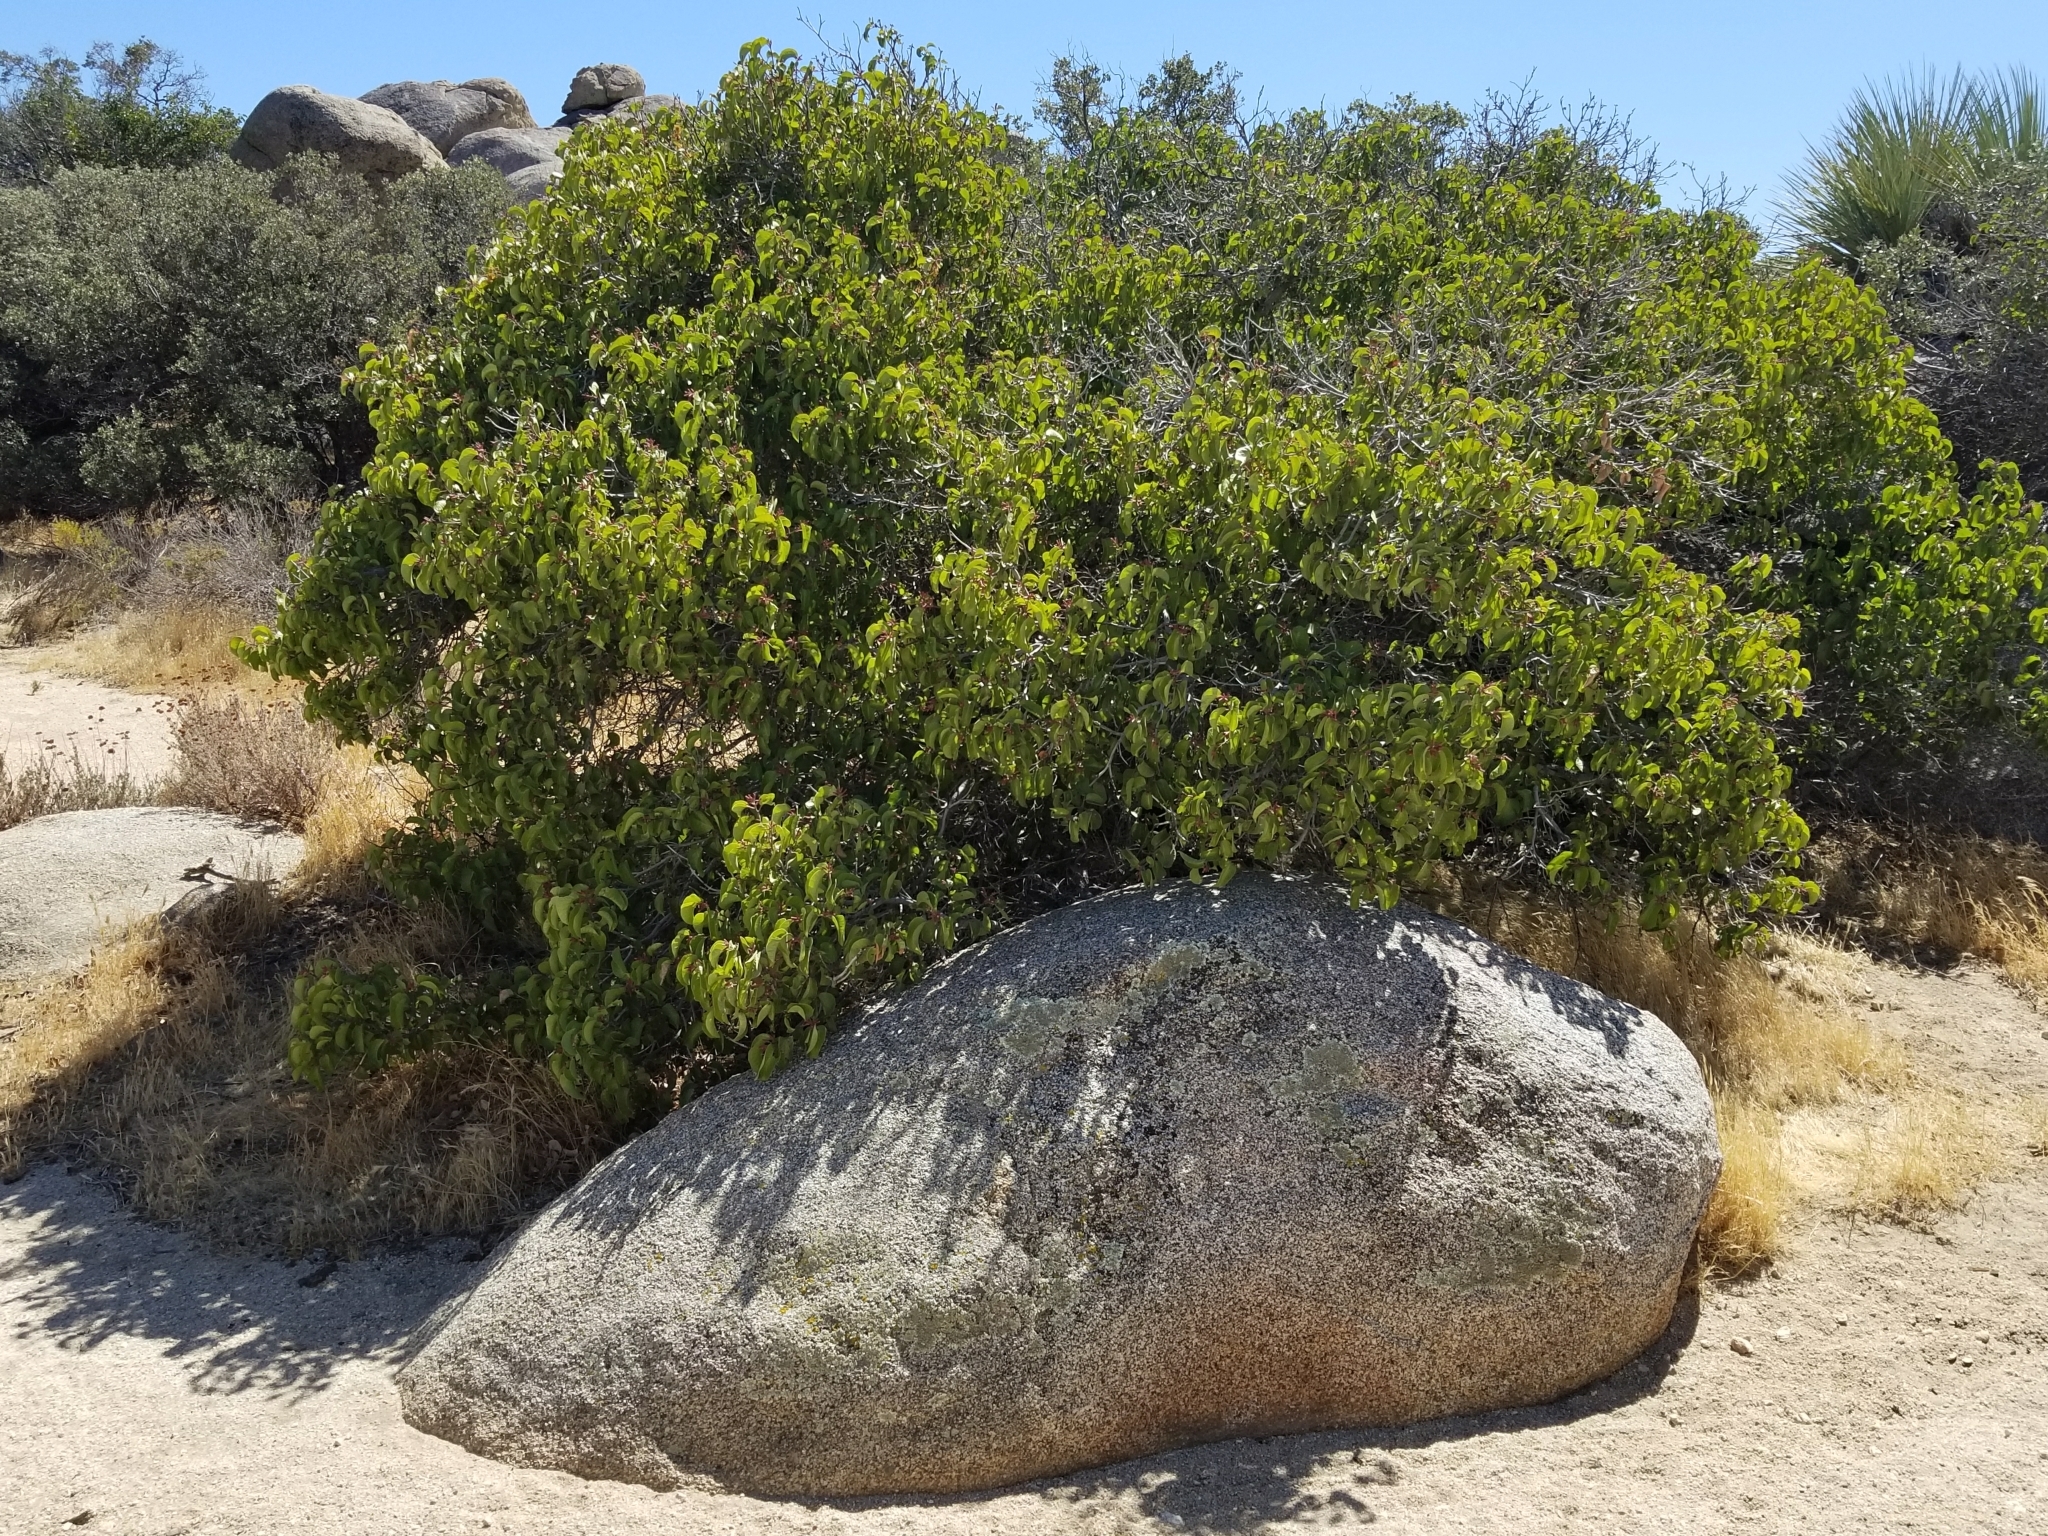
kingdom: Plantae
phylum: Tracheophyta
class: Magnoliopsida
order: Sapindales
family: Anacardiaceae
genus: Rhus
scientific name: Rhus ovata
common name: Sugar sumac
